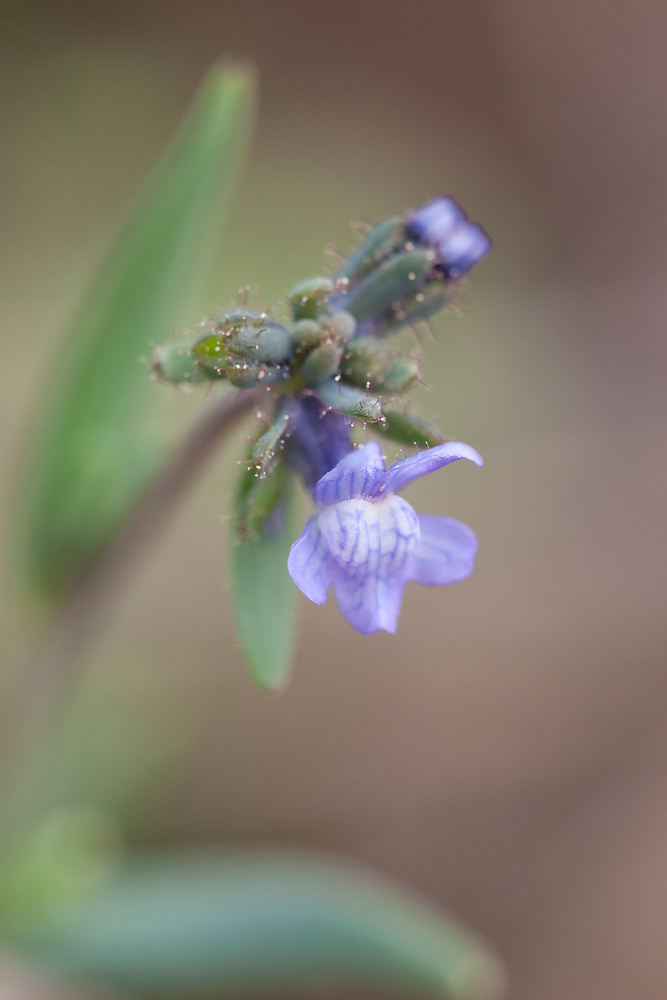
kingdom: Plantae
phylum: Tracheophyta
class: Magnoliopsida
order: Lamiales
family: Plantaginaceae
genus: Linaria
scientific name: Linaria arvensis
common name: Corn toadflax
